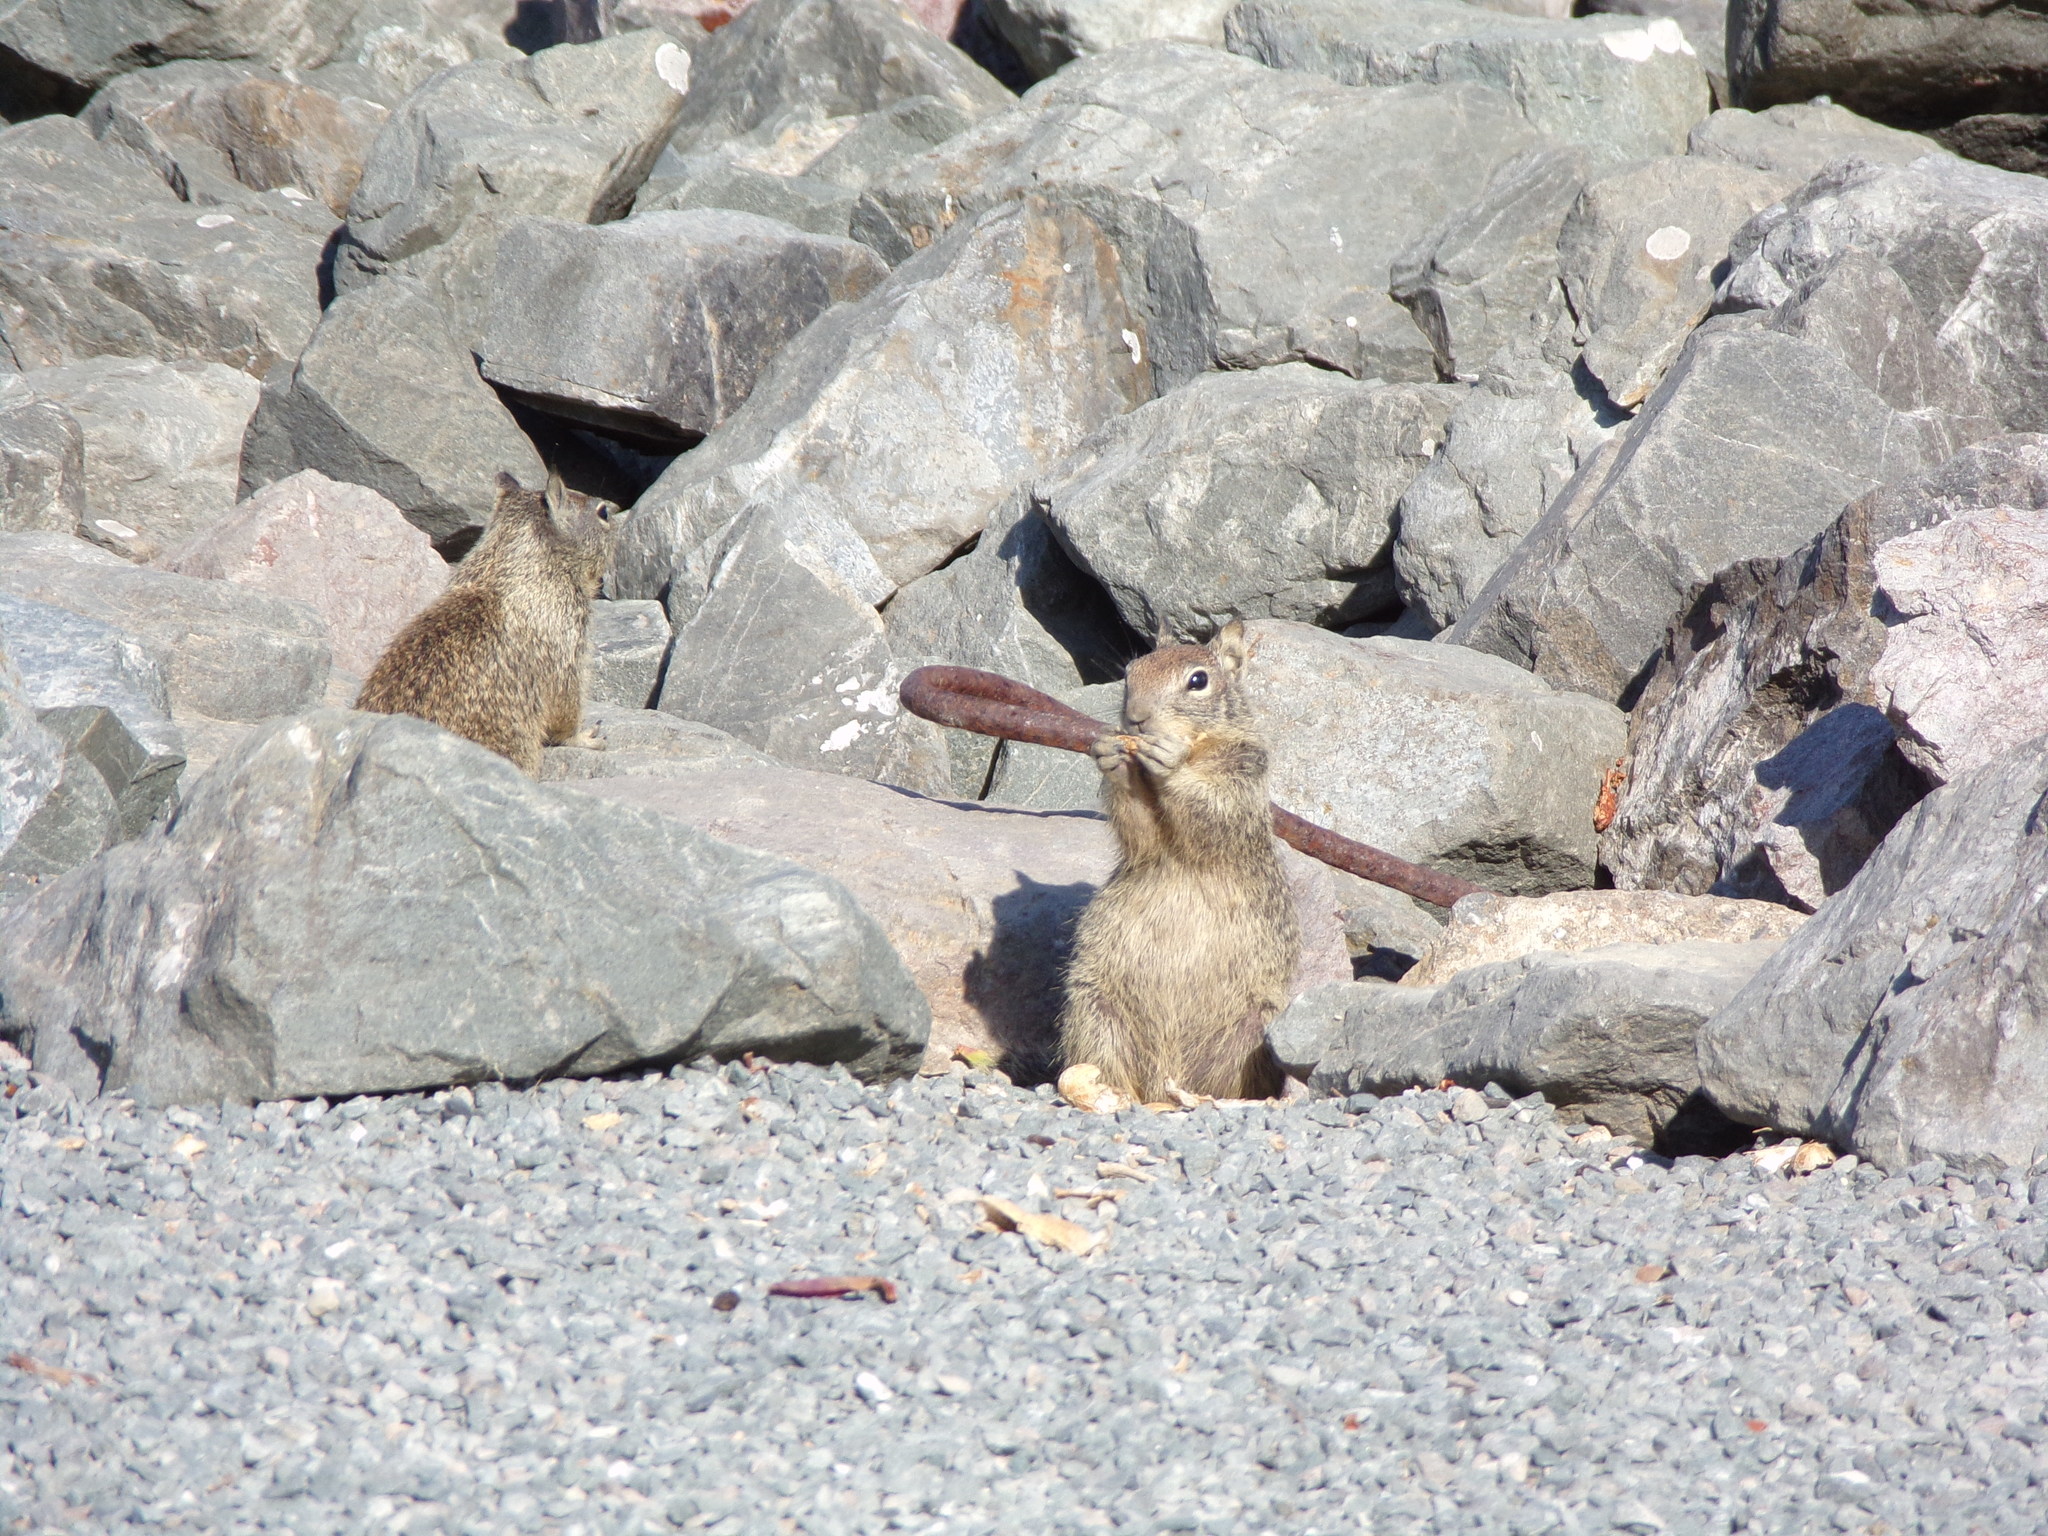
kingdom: Animalia
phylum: Chordata
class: Mammalia
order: Rodentia
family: Sciuridae
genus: Otospermophilus
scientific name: Otospermophilus beecheyi
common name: California ground squirrel
